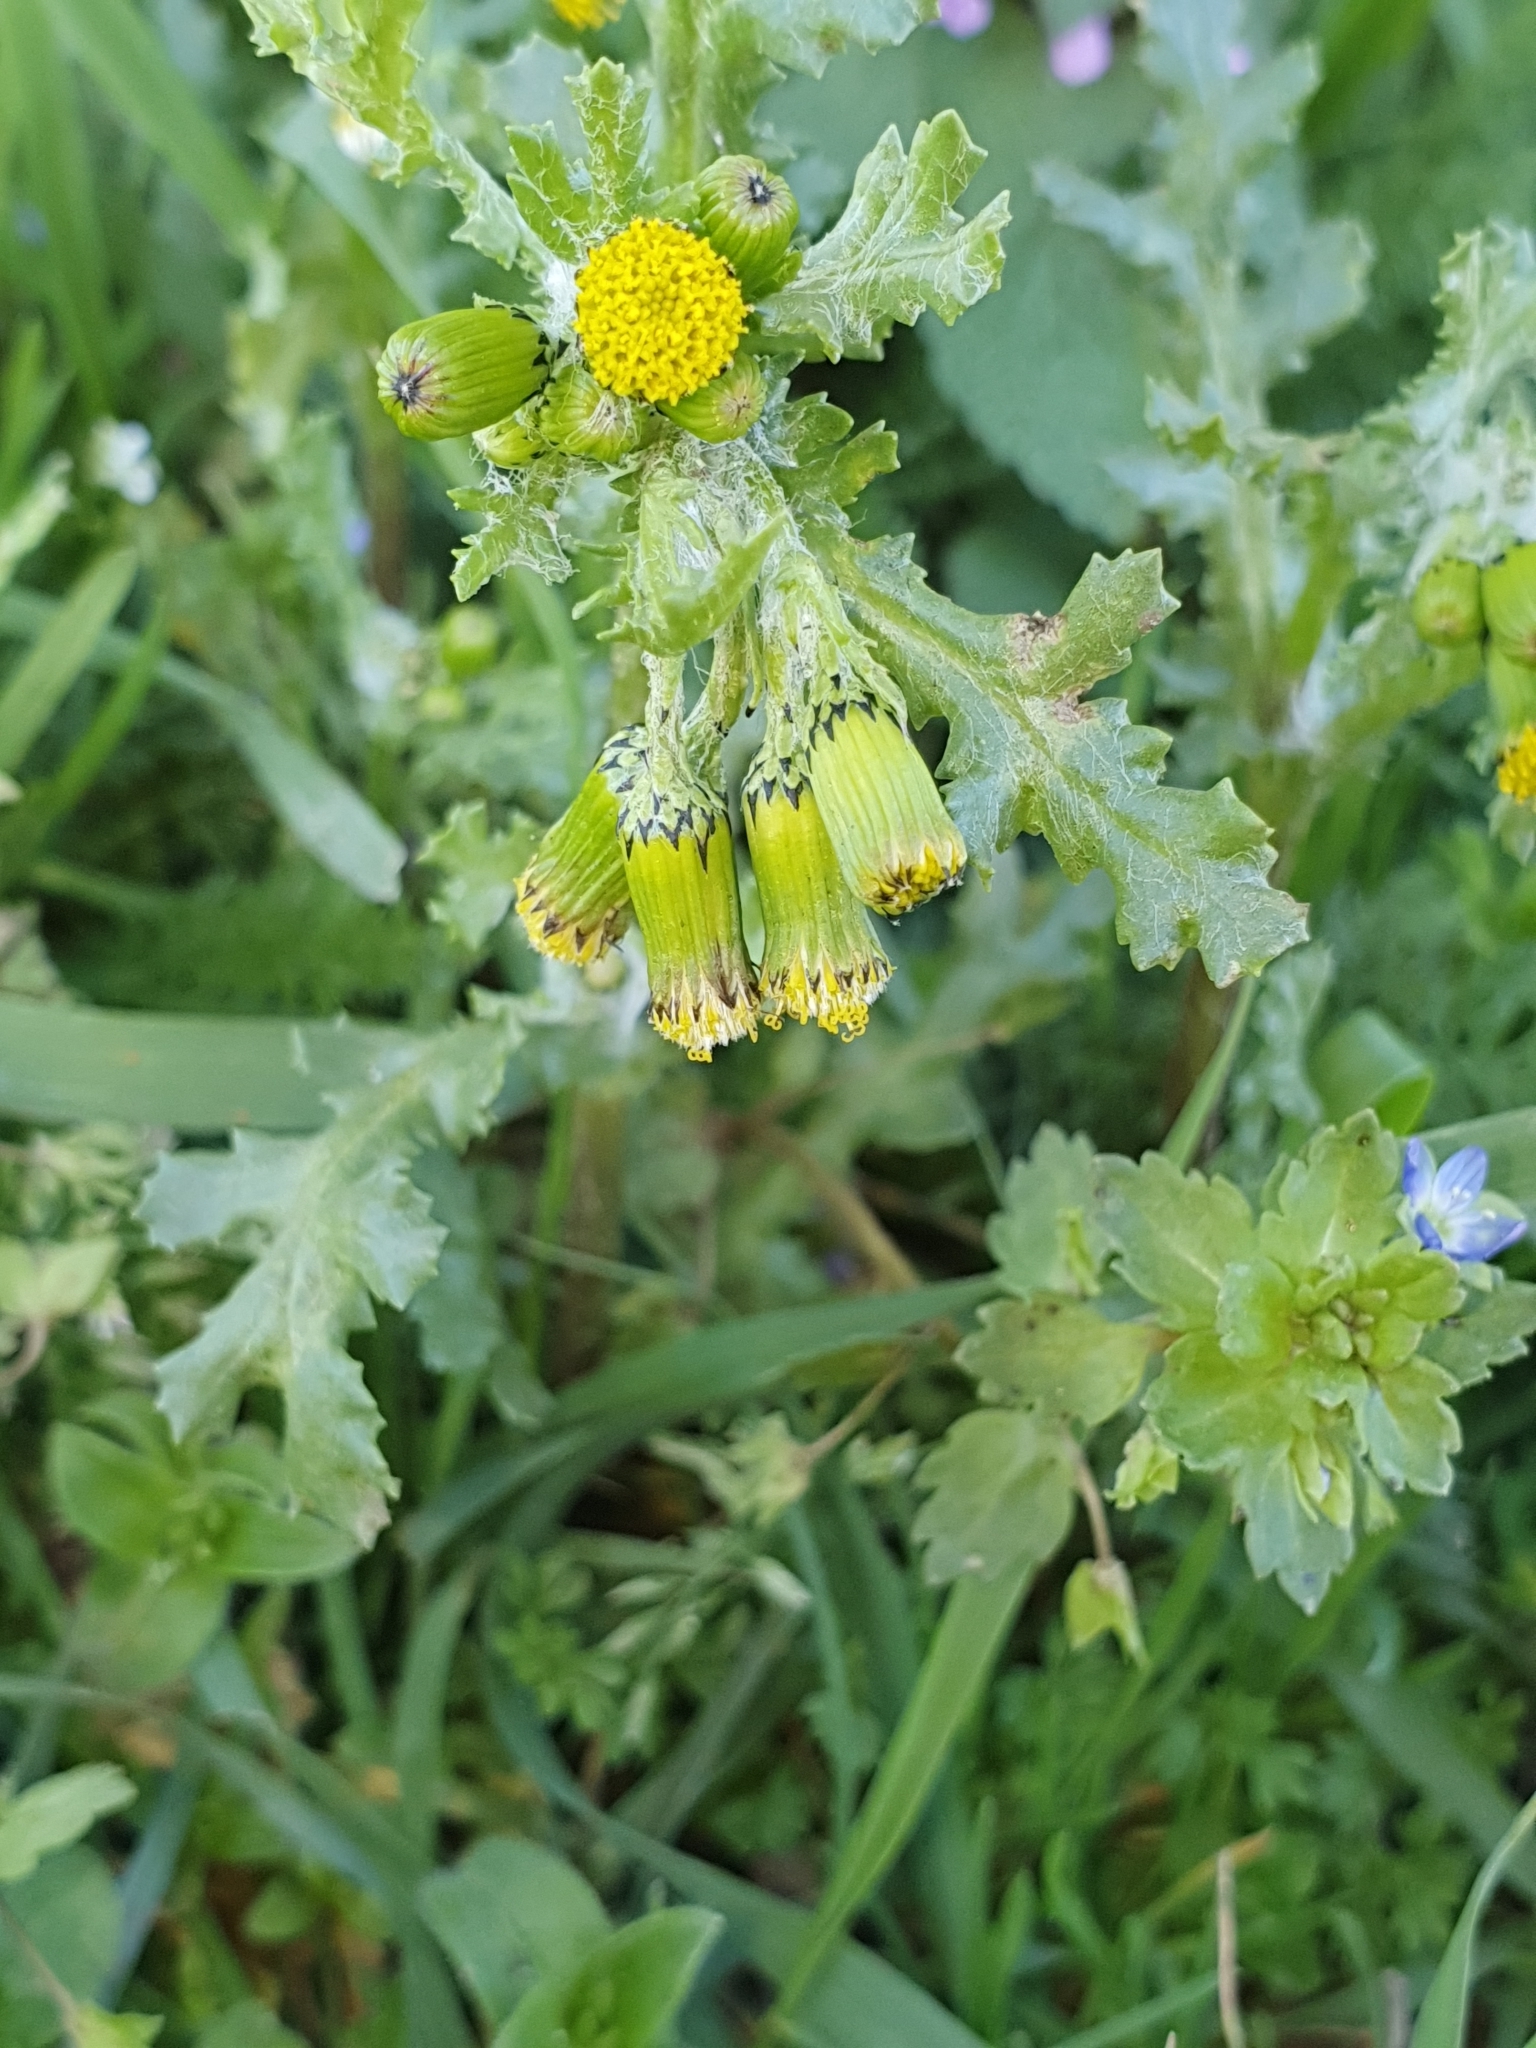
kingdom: Plantae
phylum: Tracheophyta
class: Magnoliopsida
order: Asterales
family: Asteraceae
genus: Senecio
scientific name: Senecio vulgaris
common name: Old-man-in-the-spring
